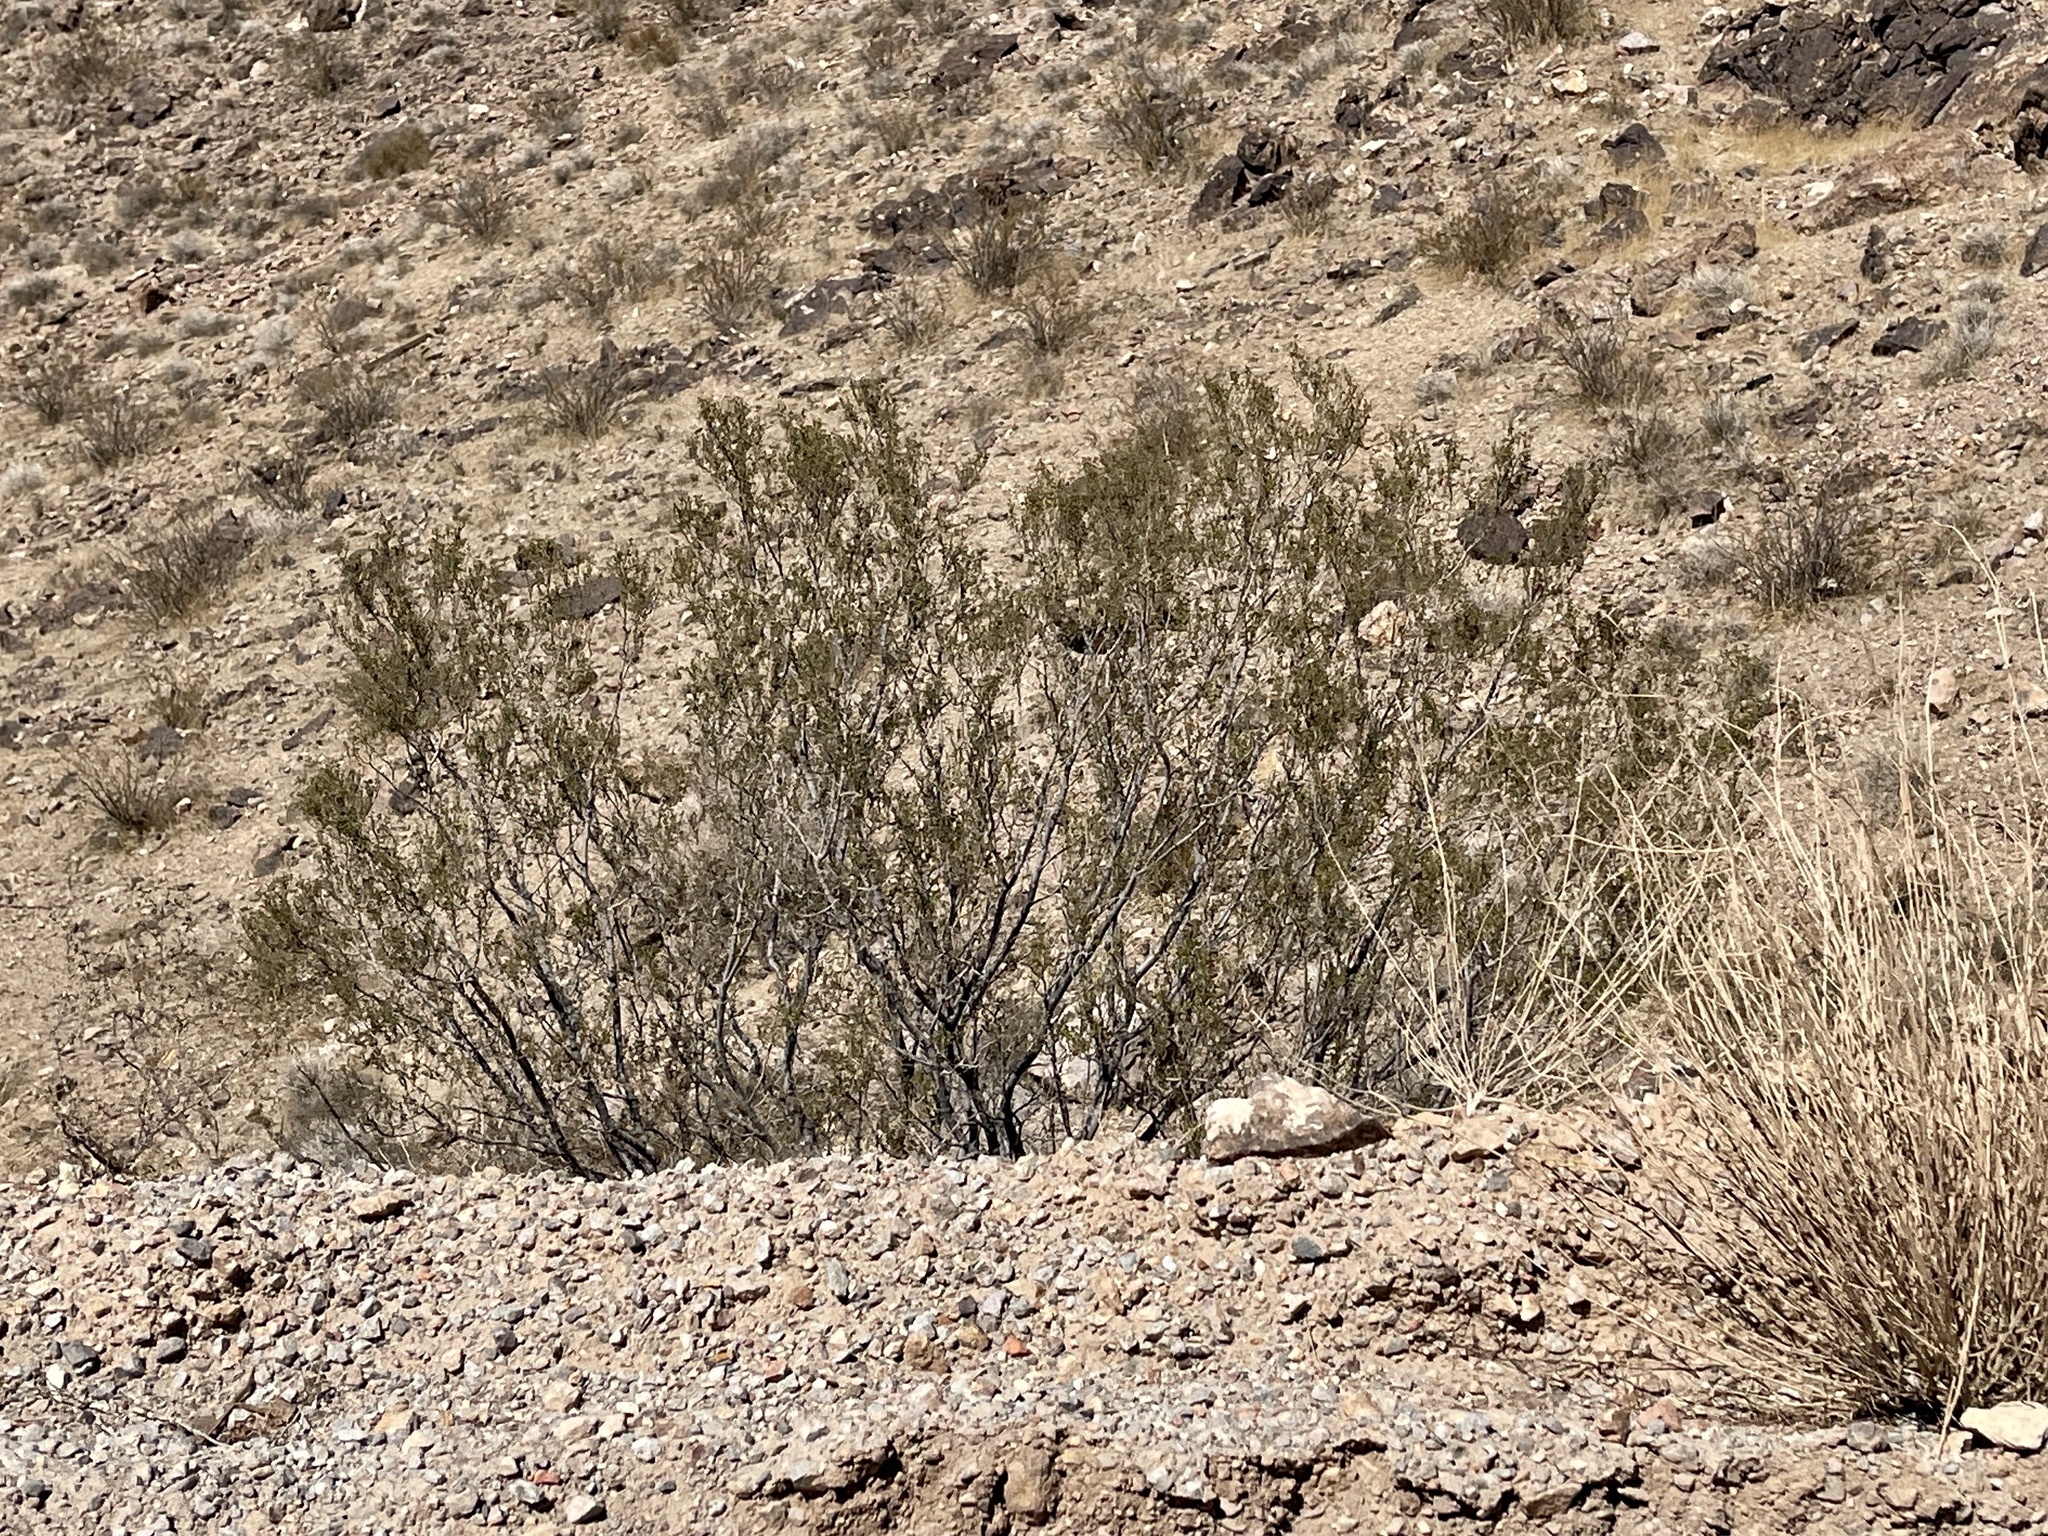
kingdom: Plantae
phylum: Tracheophyta
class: Magnoliopsida
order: Zygophyllales
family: Zygophyllaceae
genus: Larrea
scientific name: Larrea tridentata
